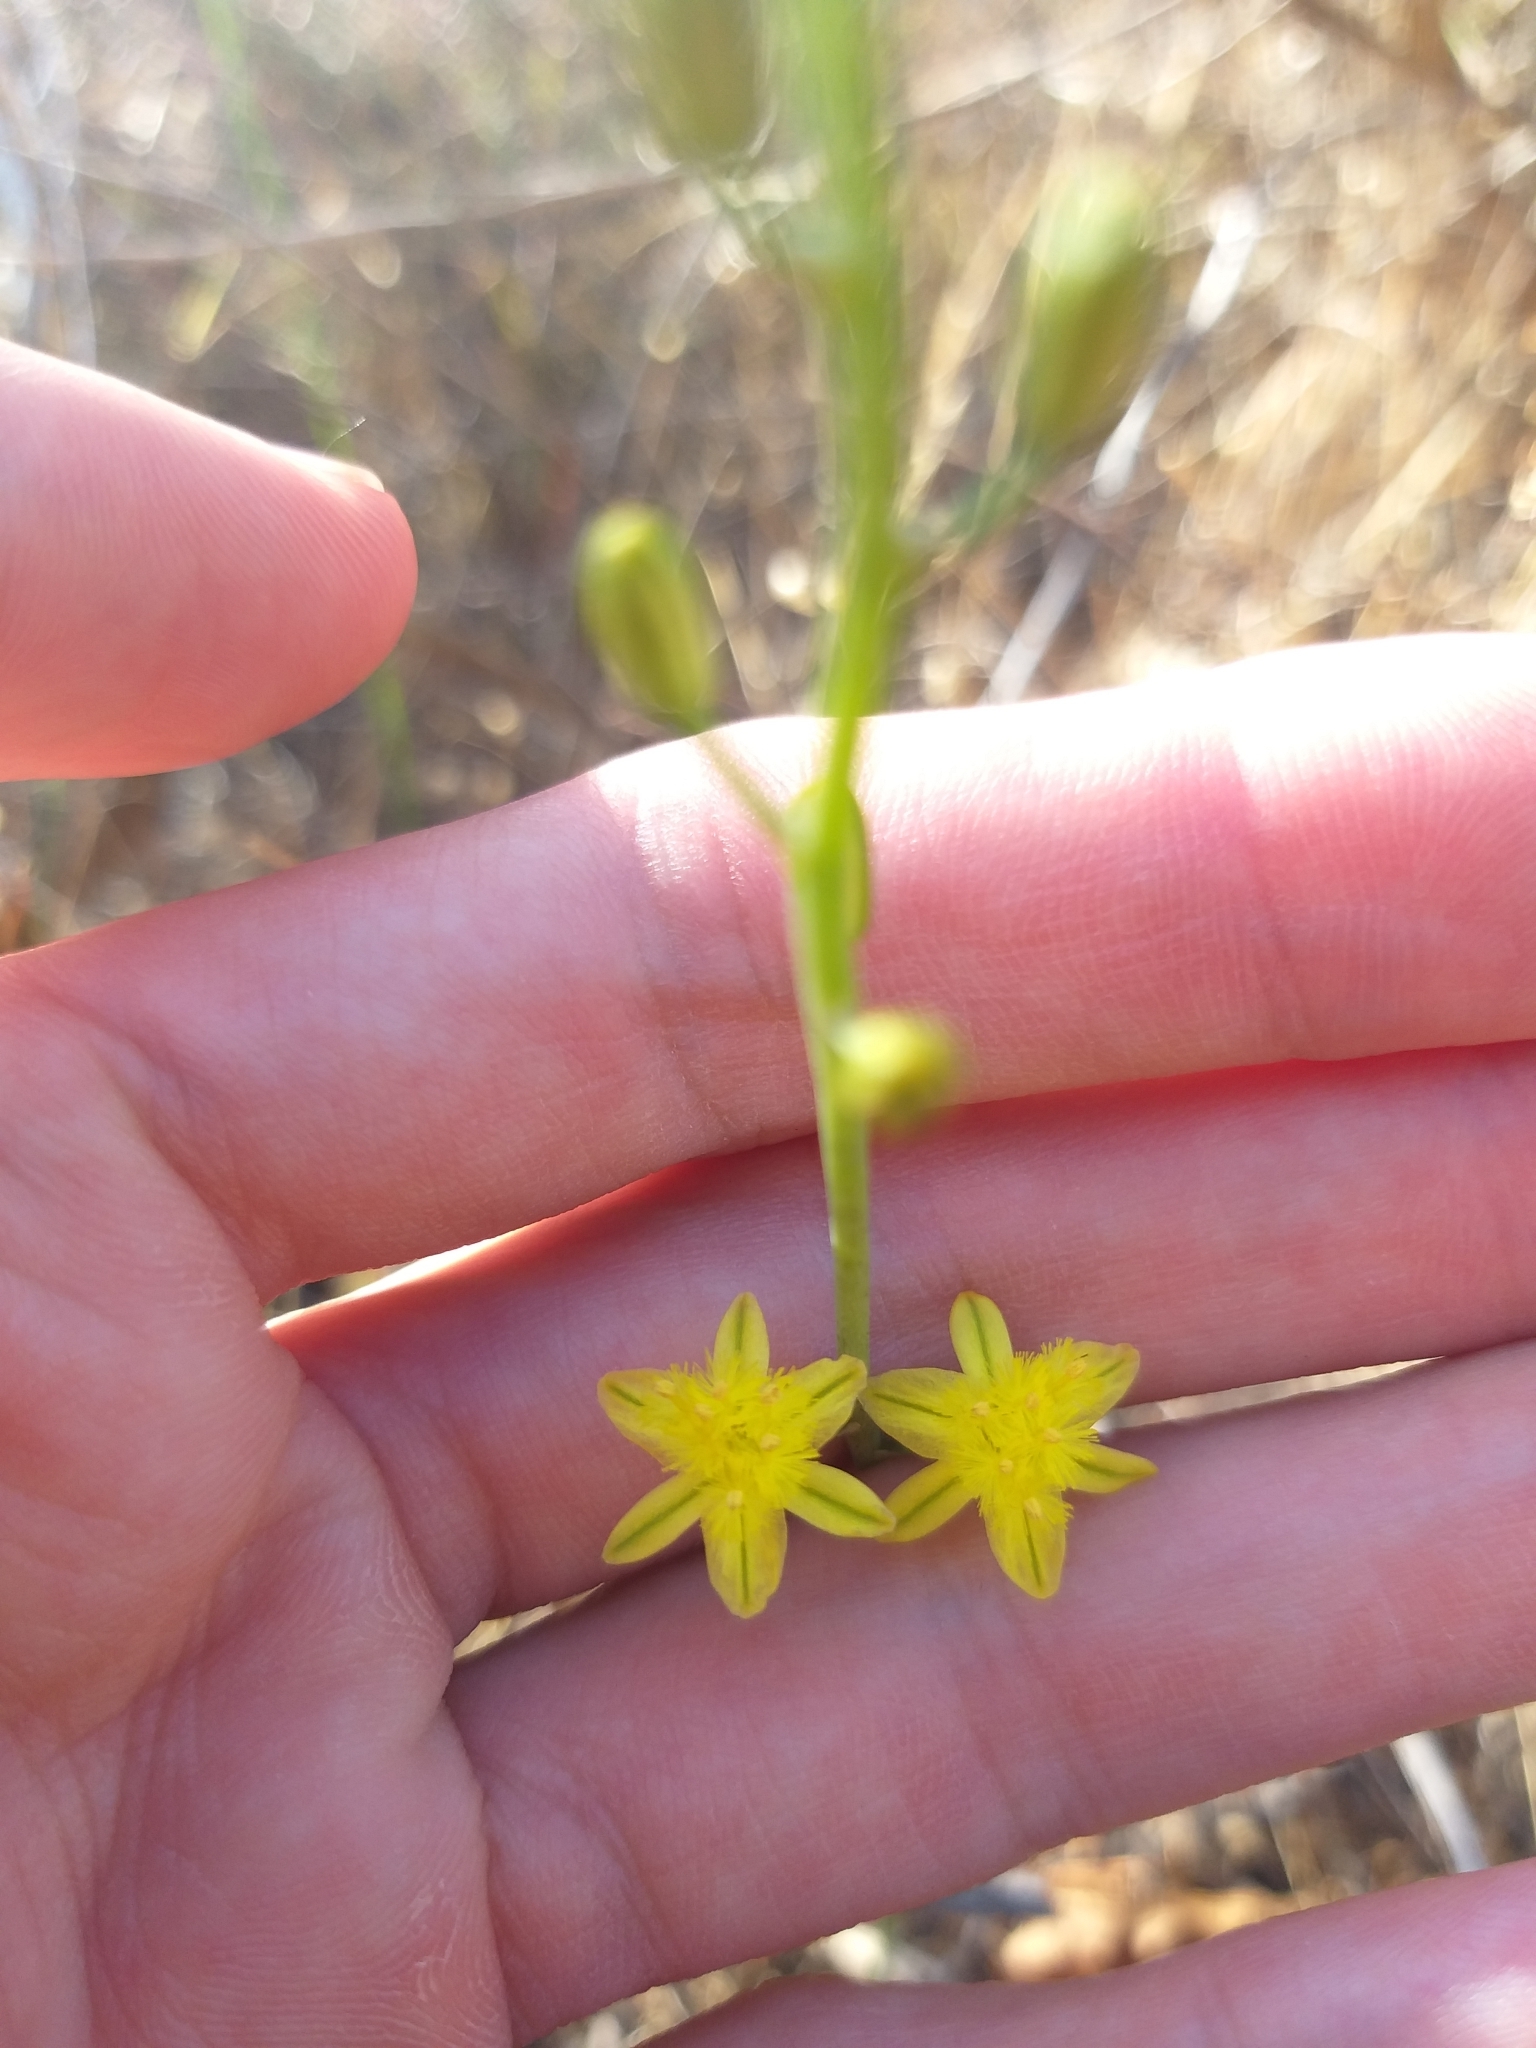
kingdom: Plantae
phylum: Tracheophyta
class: Liliopsida
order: Asparagales
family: Asphodelaceae
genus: Bulbine
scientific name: Bulbine favosa
